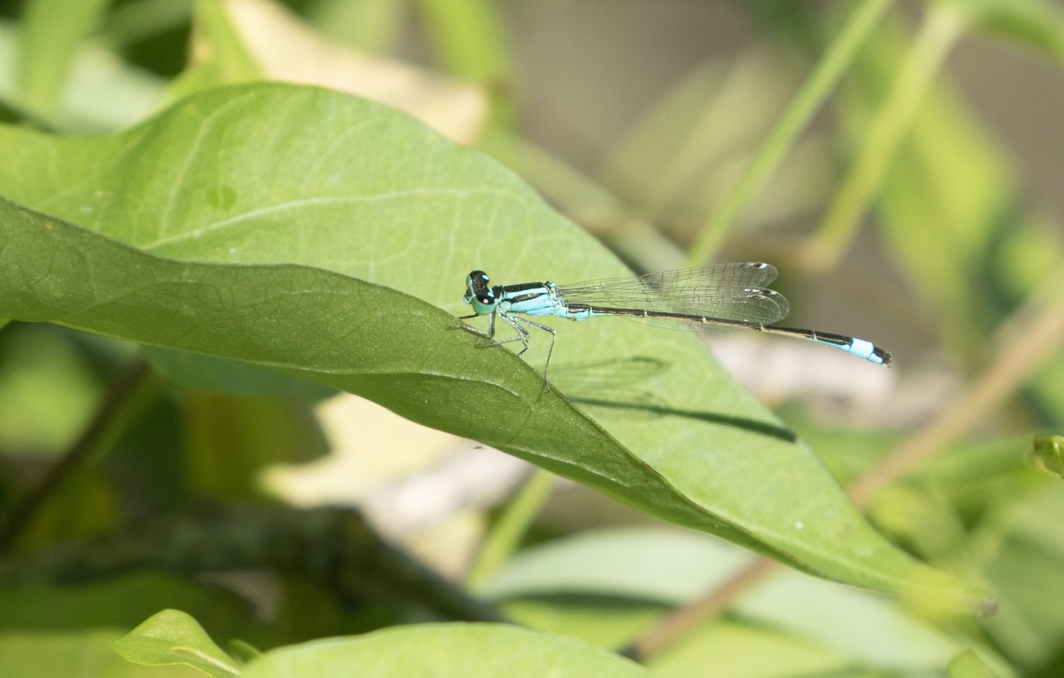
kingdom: Animalia
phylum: Arthropoda
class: Insecta
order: Odonata
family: Coenagrionidae
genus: Ischnura
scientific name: Ischnura elegans
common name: Blue-tailed damselfly
